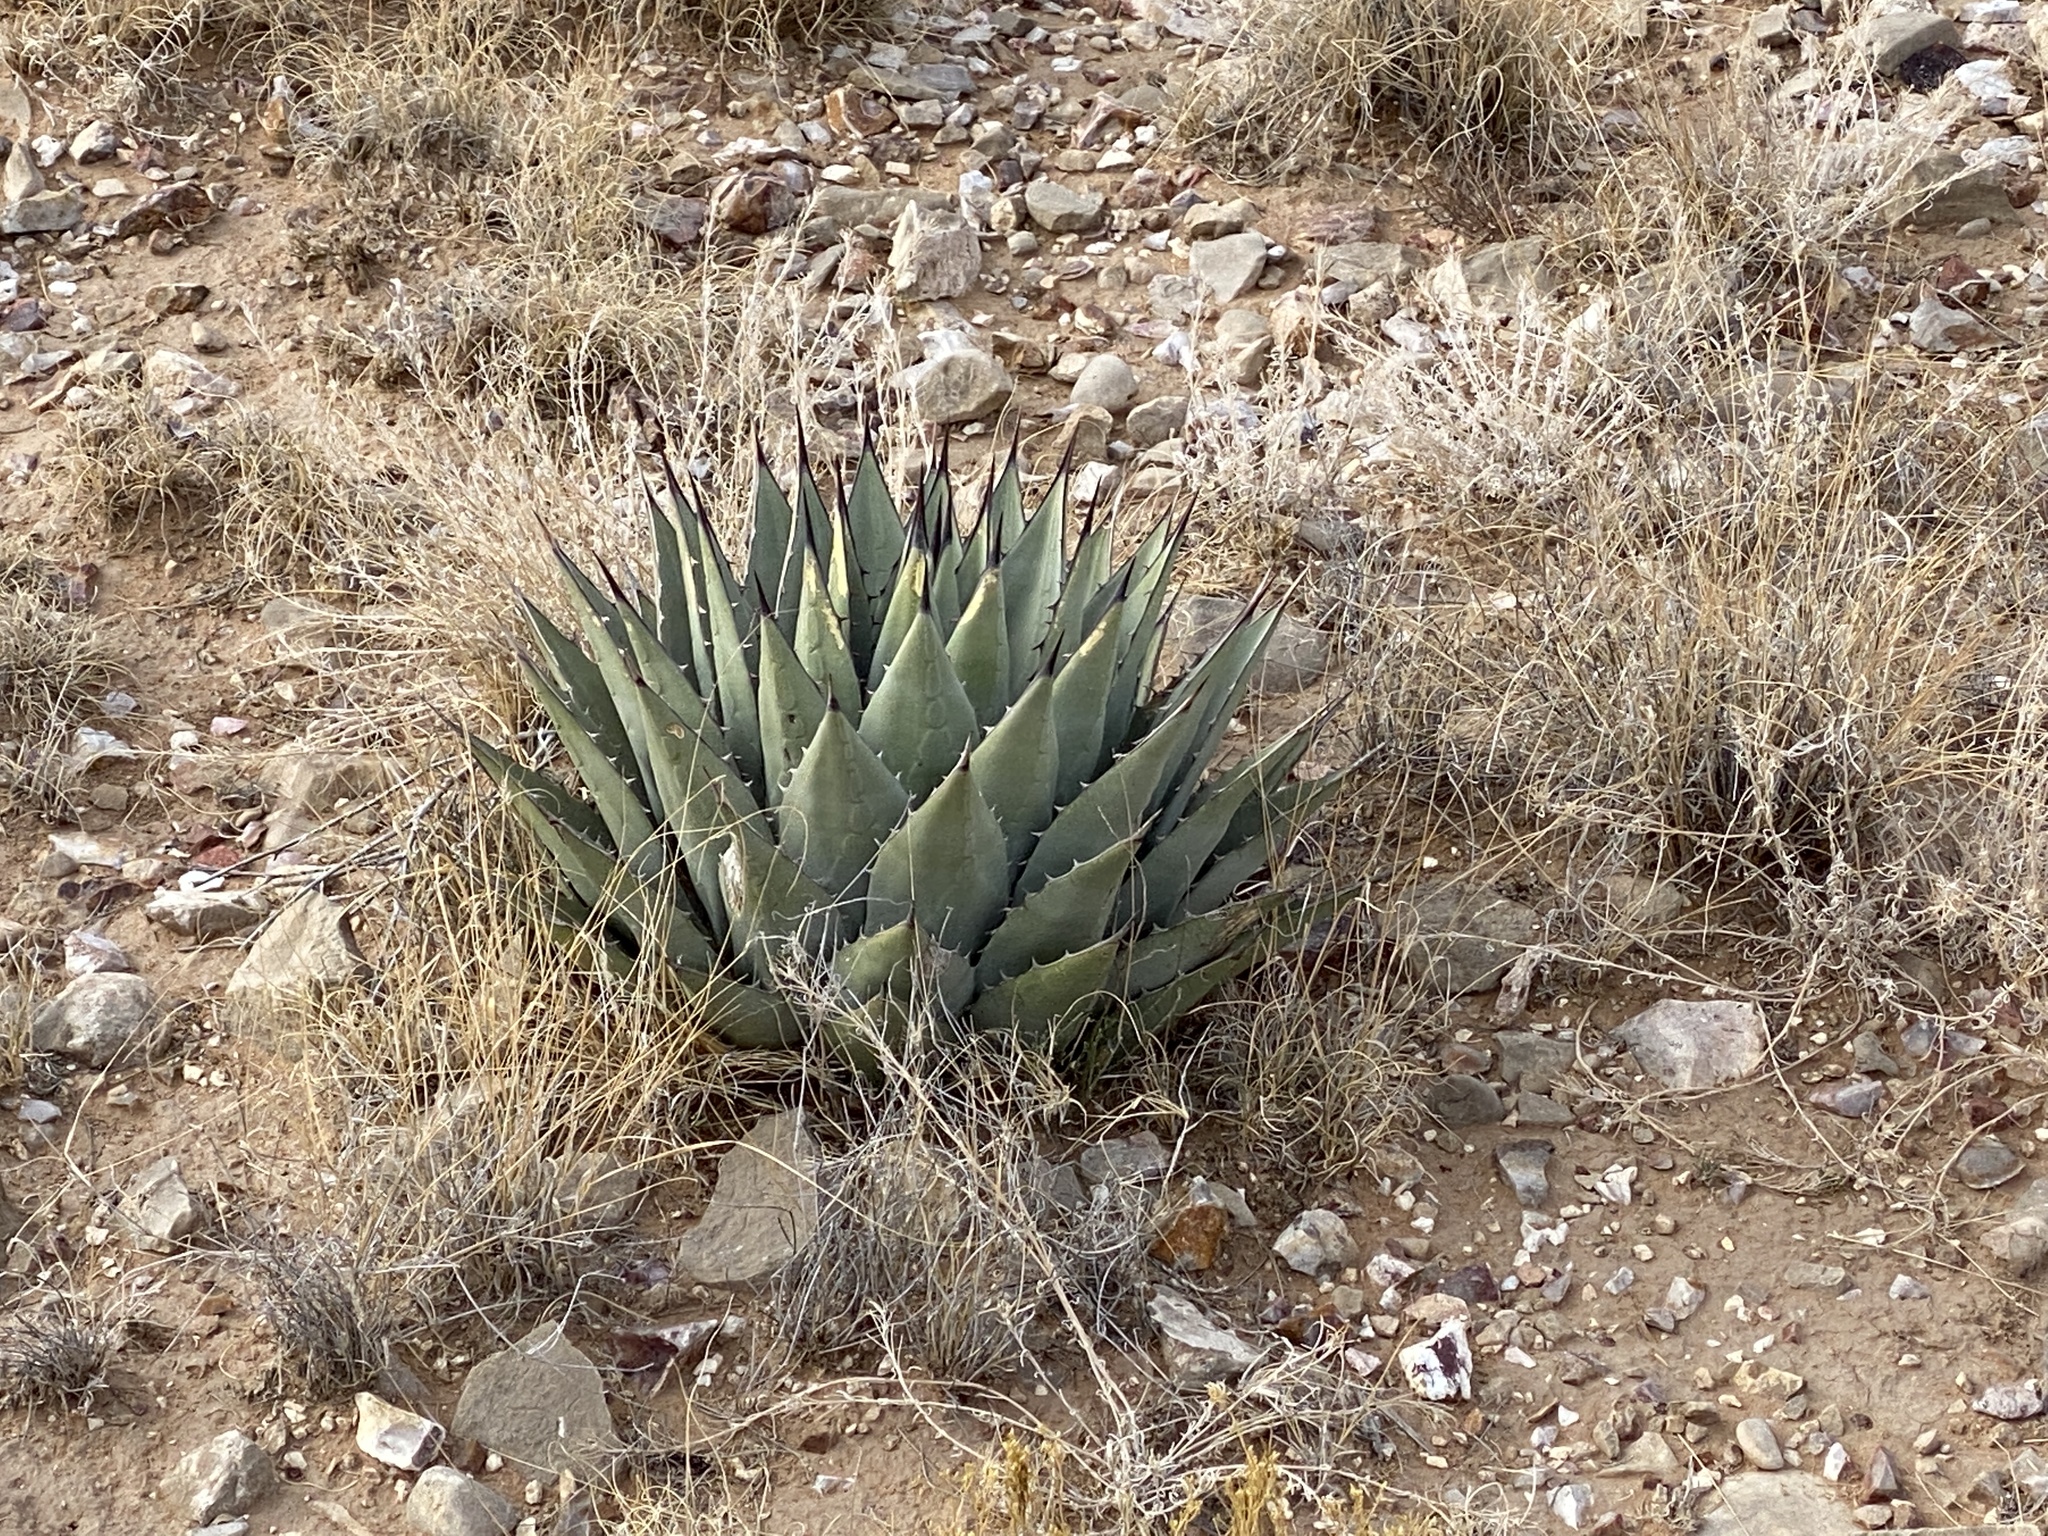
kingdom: Plantae
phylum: Tracheophyta
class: Liliopsida
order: Asparagales
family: Asparagaceae
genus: Agave
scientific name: Agave parryi
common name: Parry's agave
